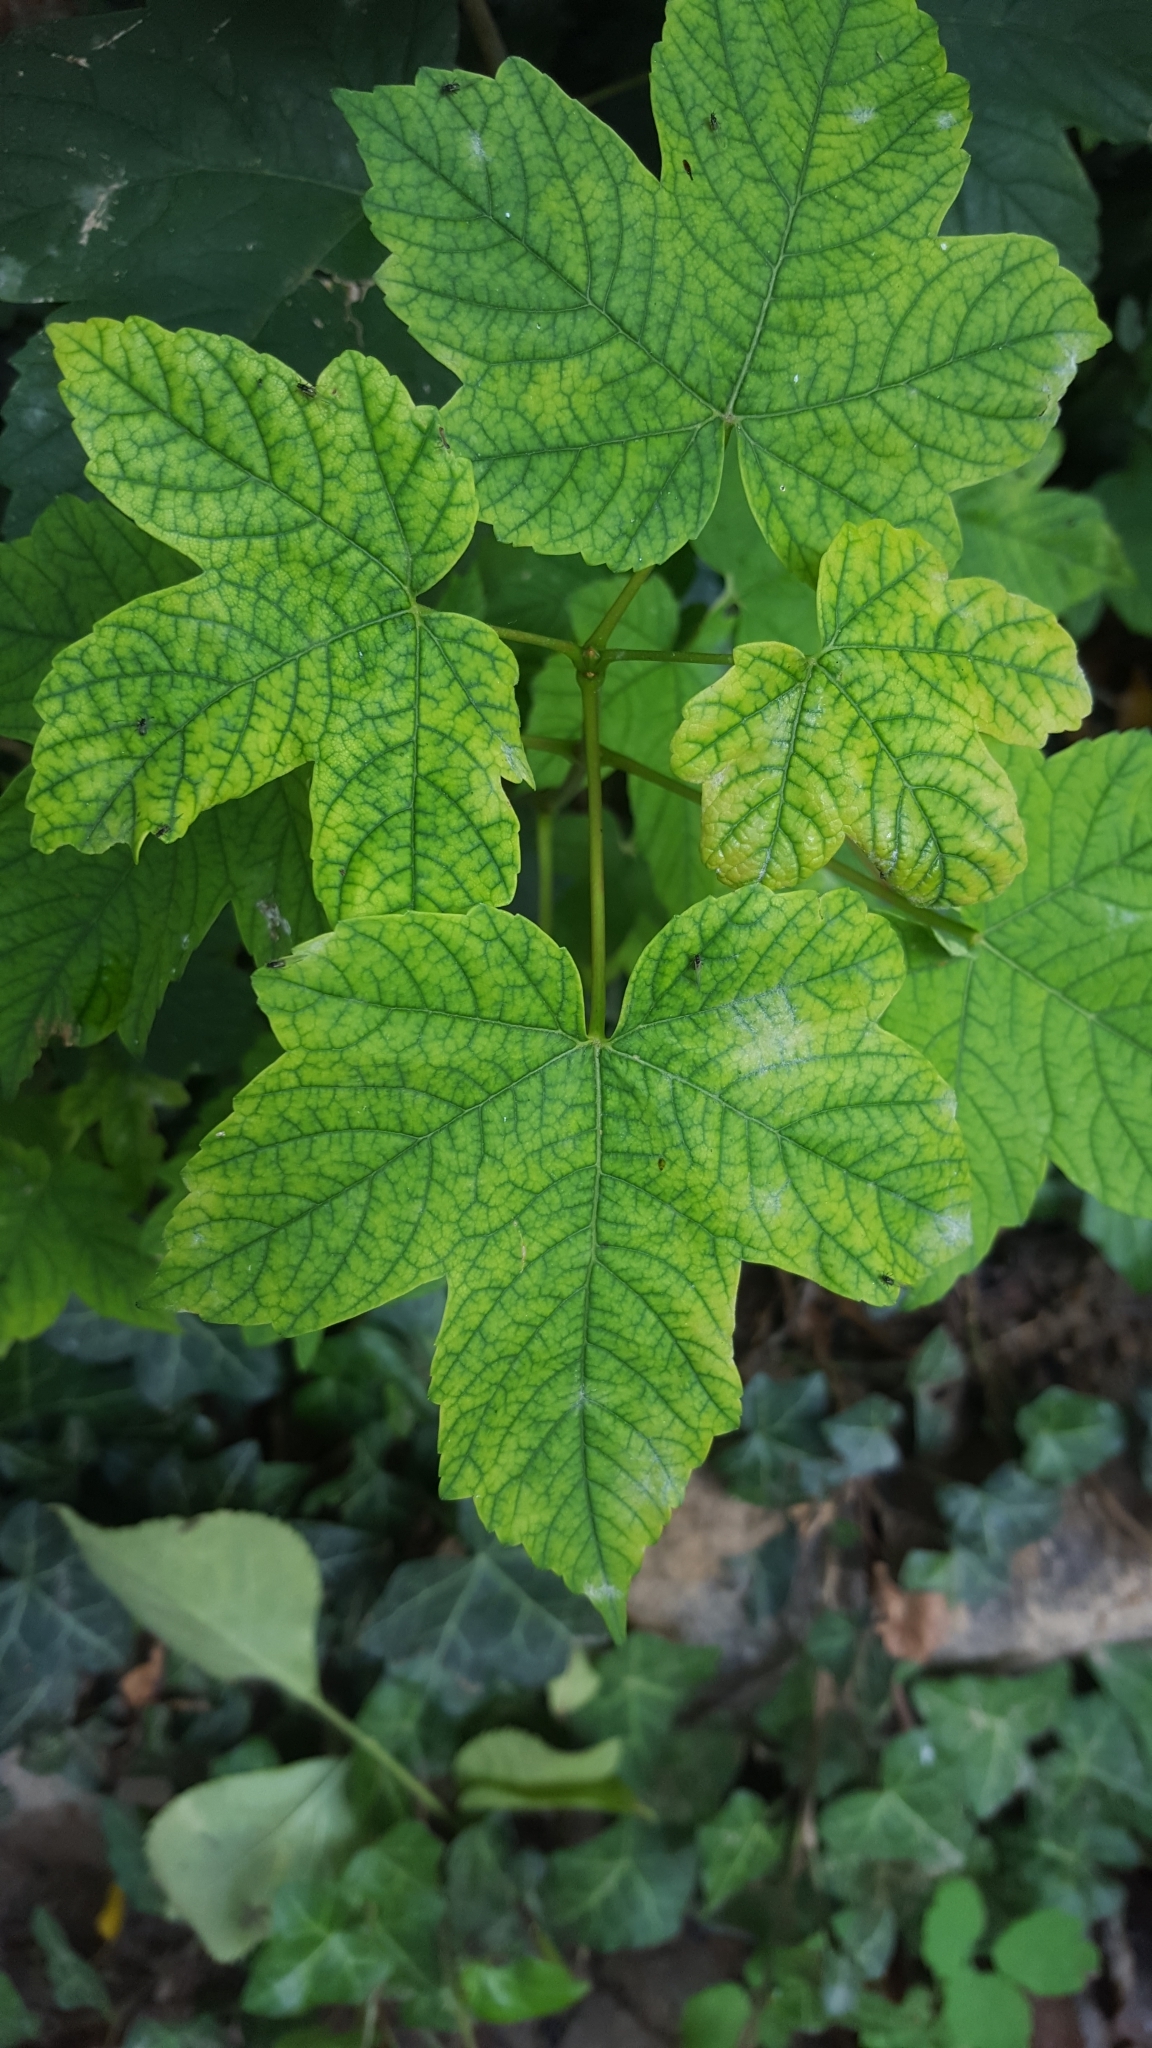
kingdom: Plantae
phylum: Tracheophyta
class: Magnoliopsida
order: Sapindales
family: Sapindaceae
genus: Acer
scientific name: Acer pseudoplatanus
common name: Sycamore
